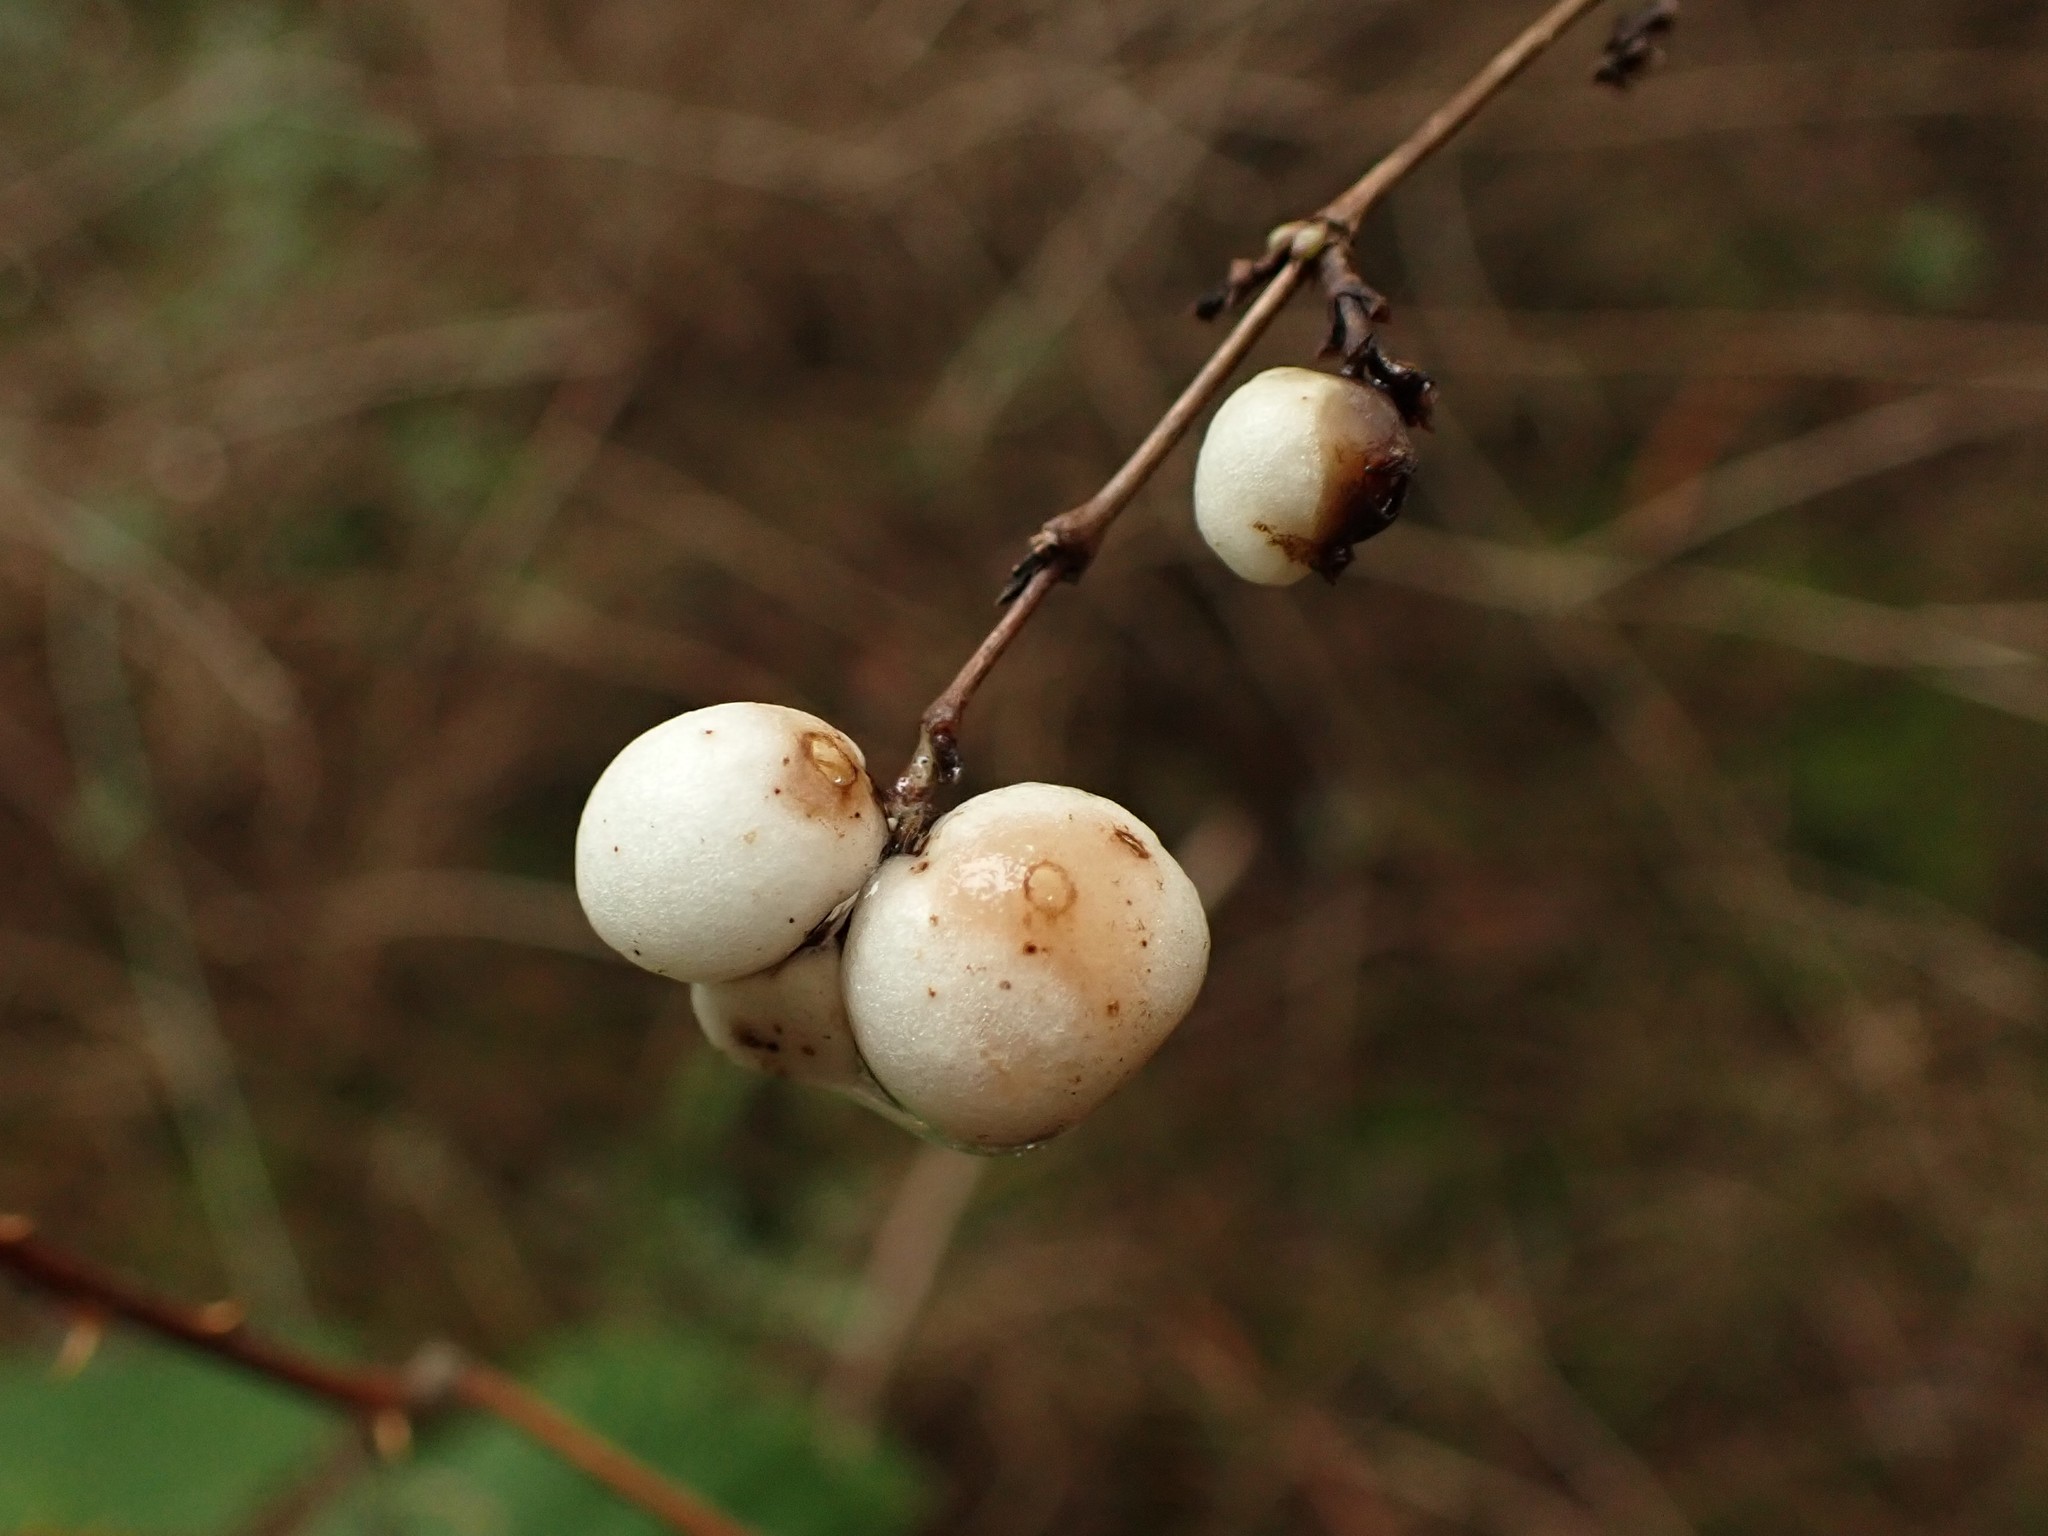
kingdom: Plantae
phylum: Tracheophyta
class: Magnoliopsida
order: Dipsacales
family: Caprifoliaceae
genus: Symphoricarpos
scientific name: Symphoricarpos albus
